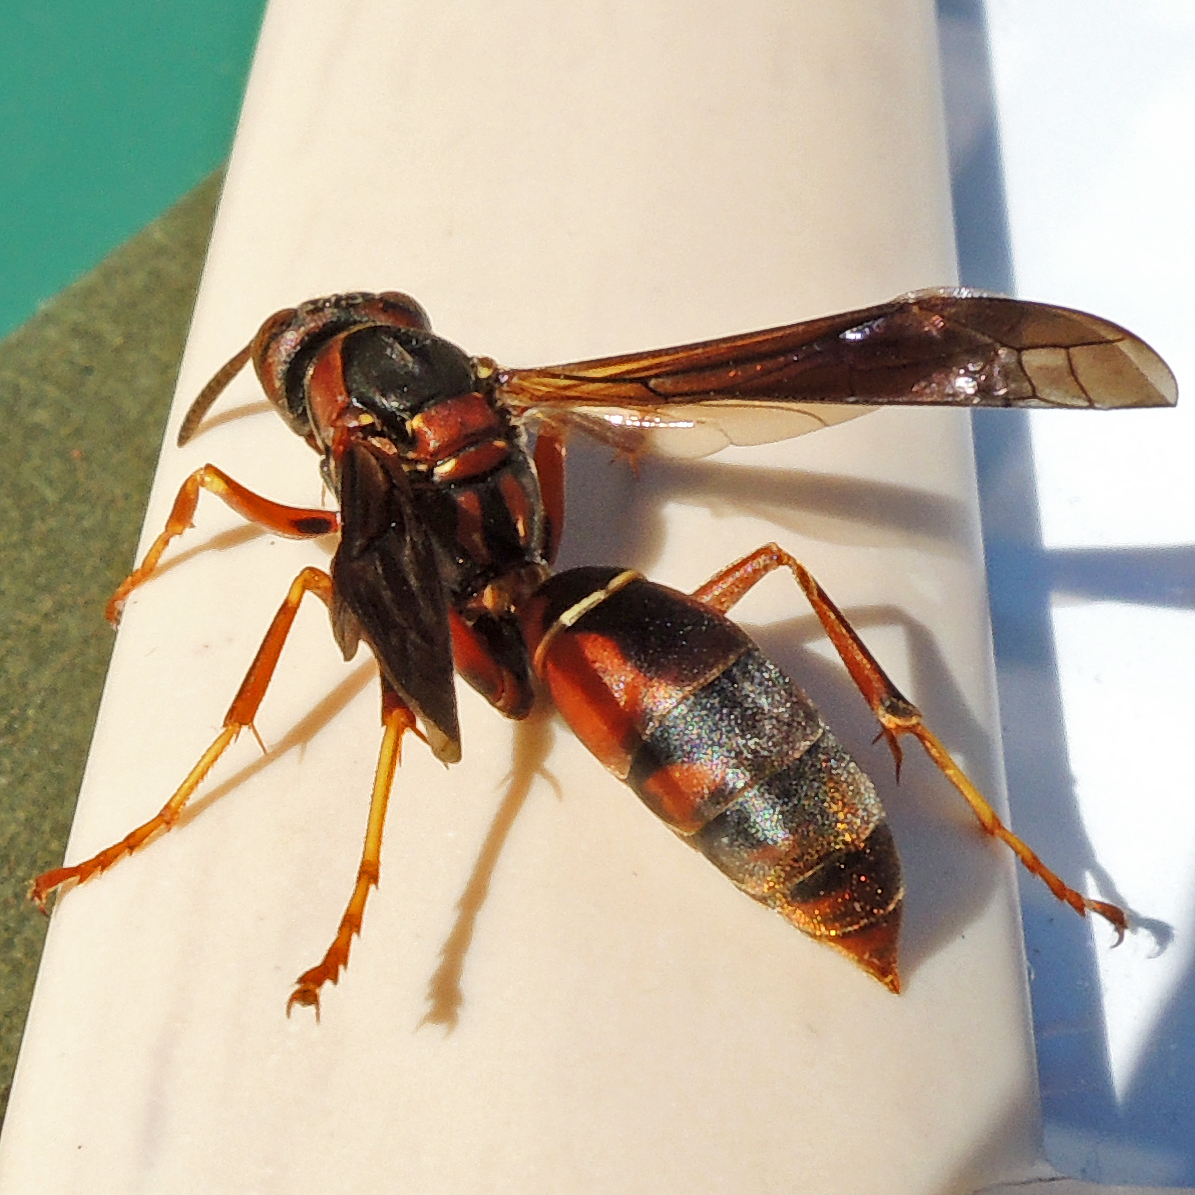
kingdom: Animalia
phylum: Arthropoda
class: Insecta
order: Hymenoptera
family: Eumenidae
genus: Polistes
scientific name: Polistes fuscatus
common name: Dark paper wasp
